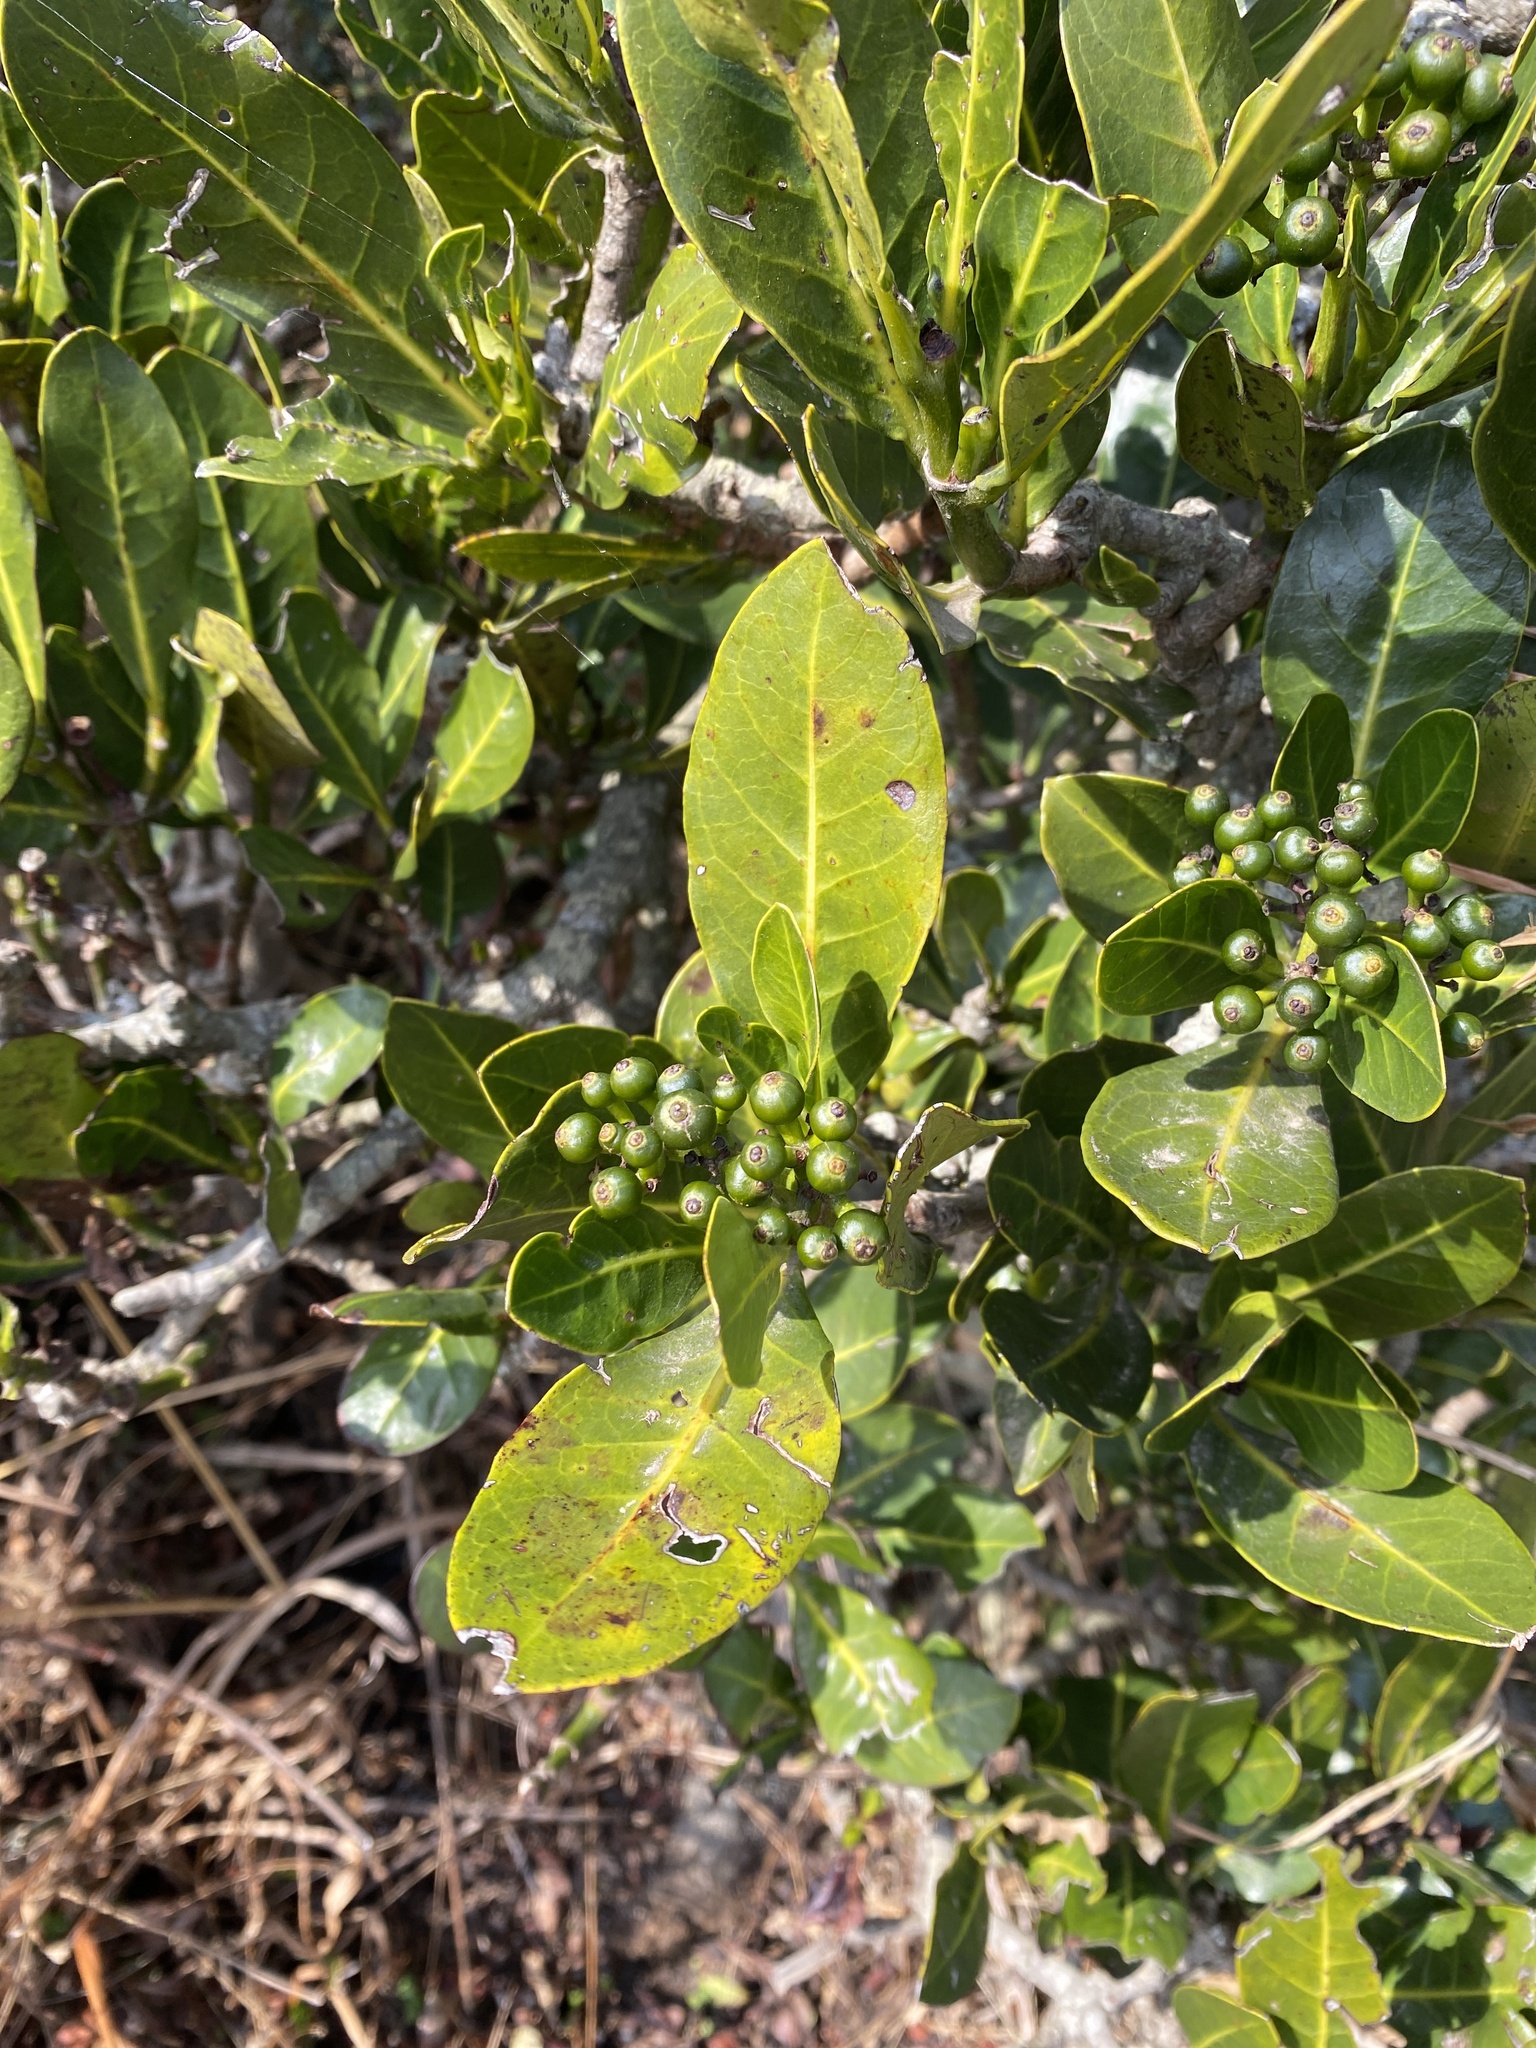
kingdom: Plantae
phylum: Tracheophyta
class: Magnoliopsida
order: Gentianales
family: Rubiaceae
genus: Psychotria
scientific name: Psychotria
